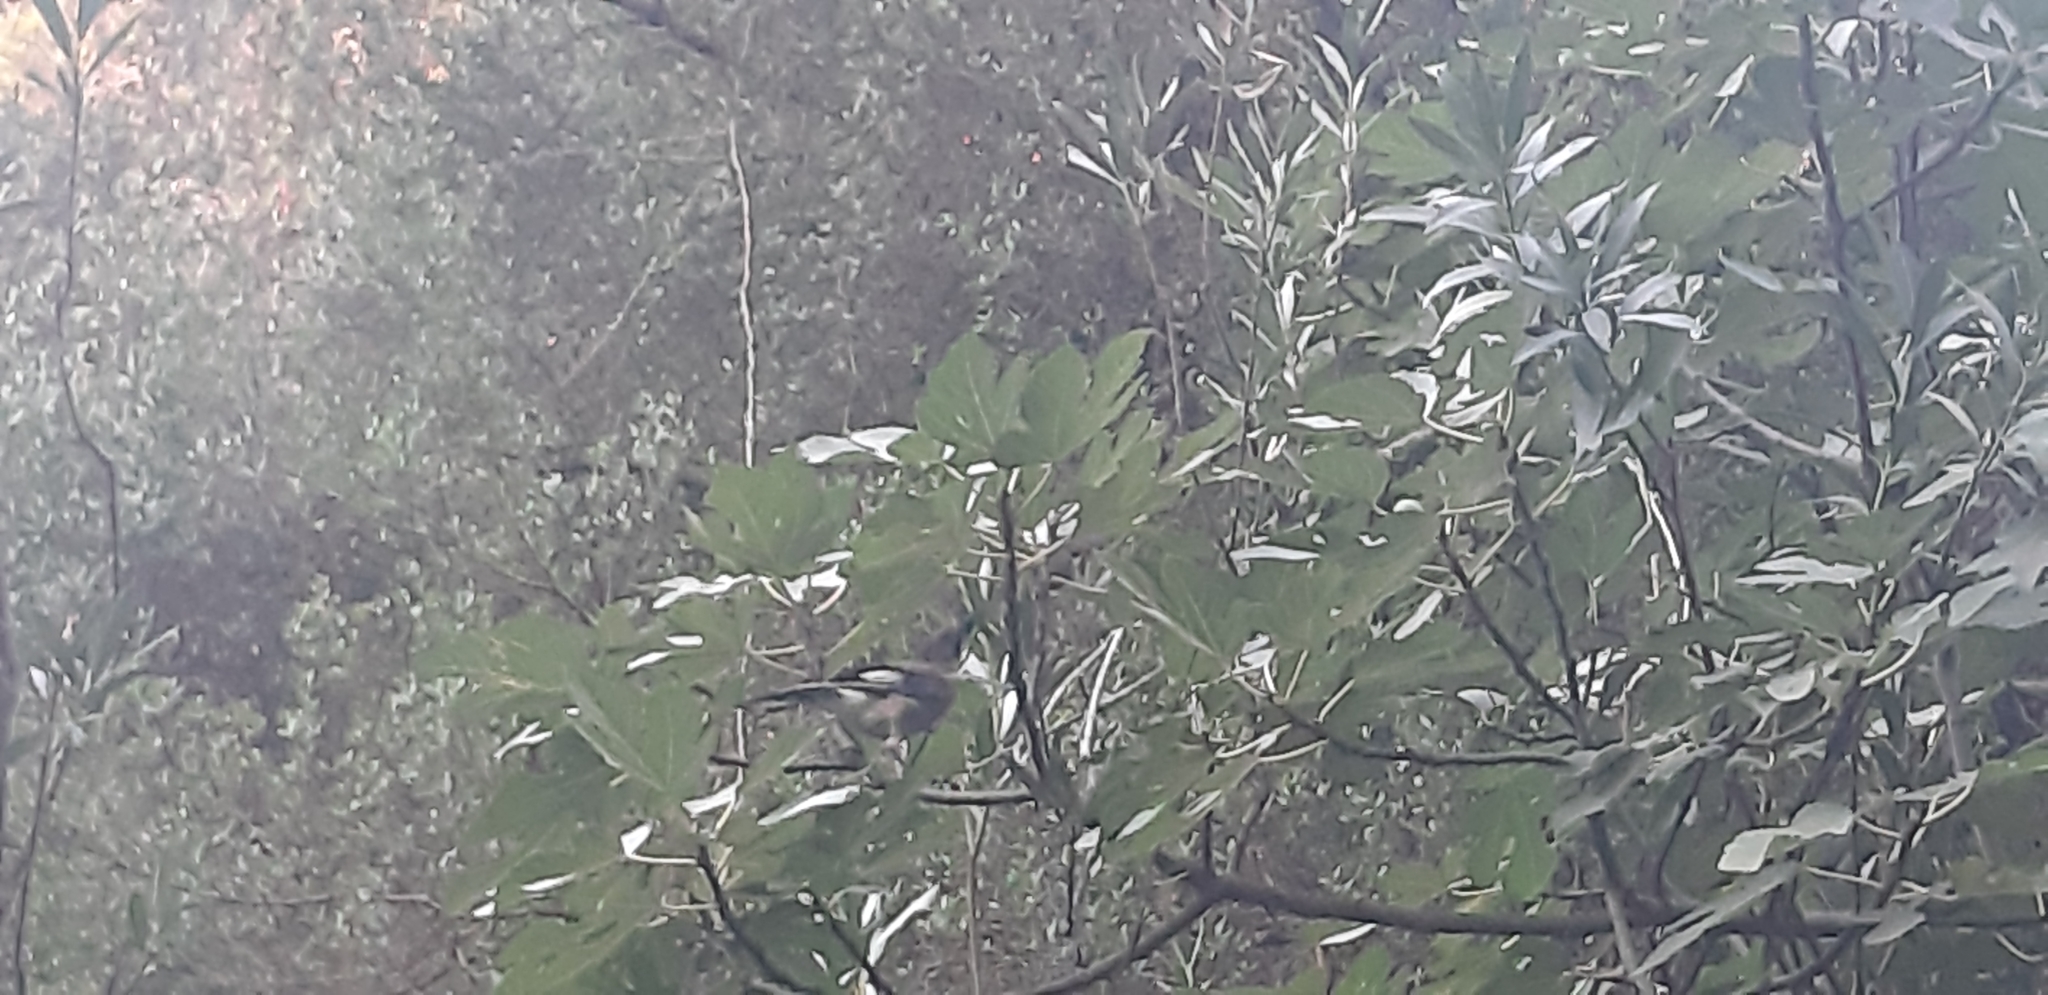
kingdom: Animalia
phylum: Chordata
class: Aves
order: Passeriformes
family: Corvidae
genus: Garrulus
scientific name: Garrulus glandarius
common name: Eurasian jay
